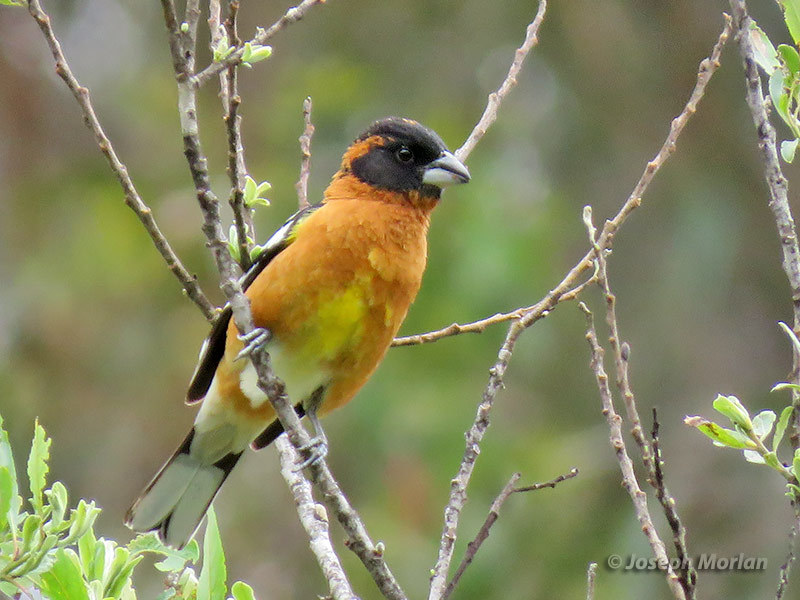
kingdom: Animalia
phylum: Chordata
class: Aves
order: Passeriformes
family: Cardinalidae
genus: Pheucticus
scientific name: Pheucticus melanocephalus
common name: Black-headed grosbeak
